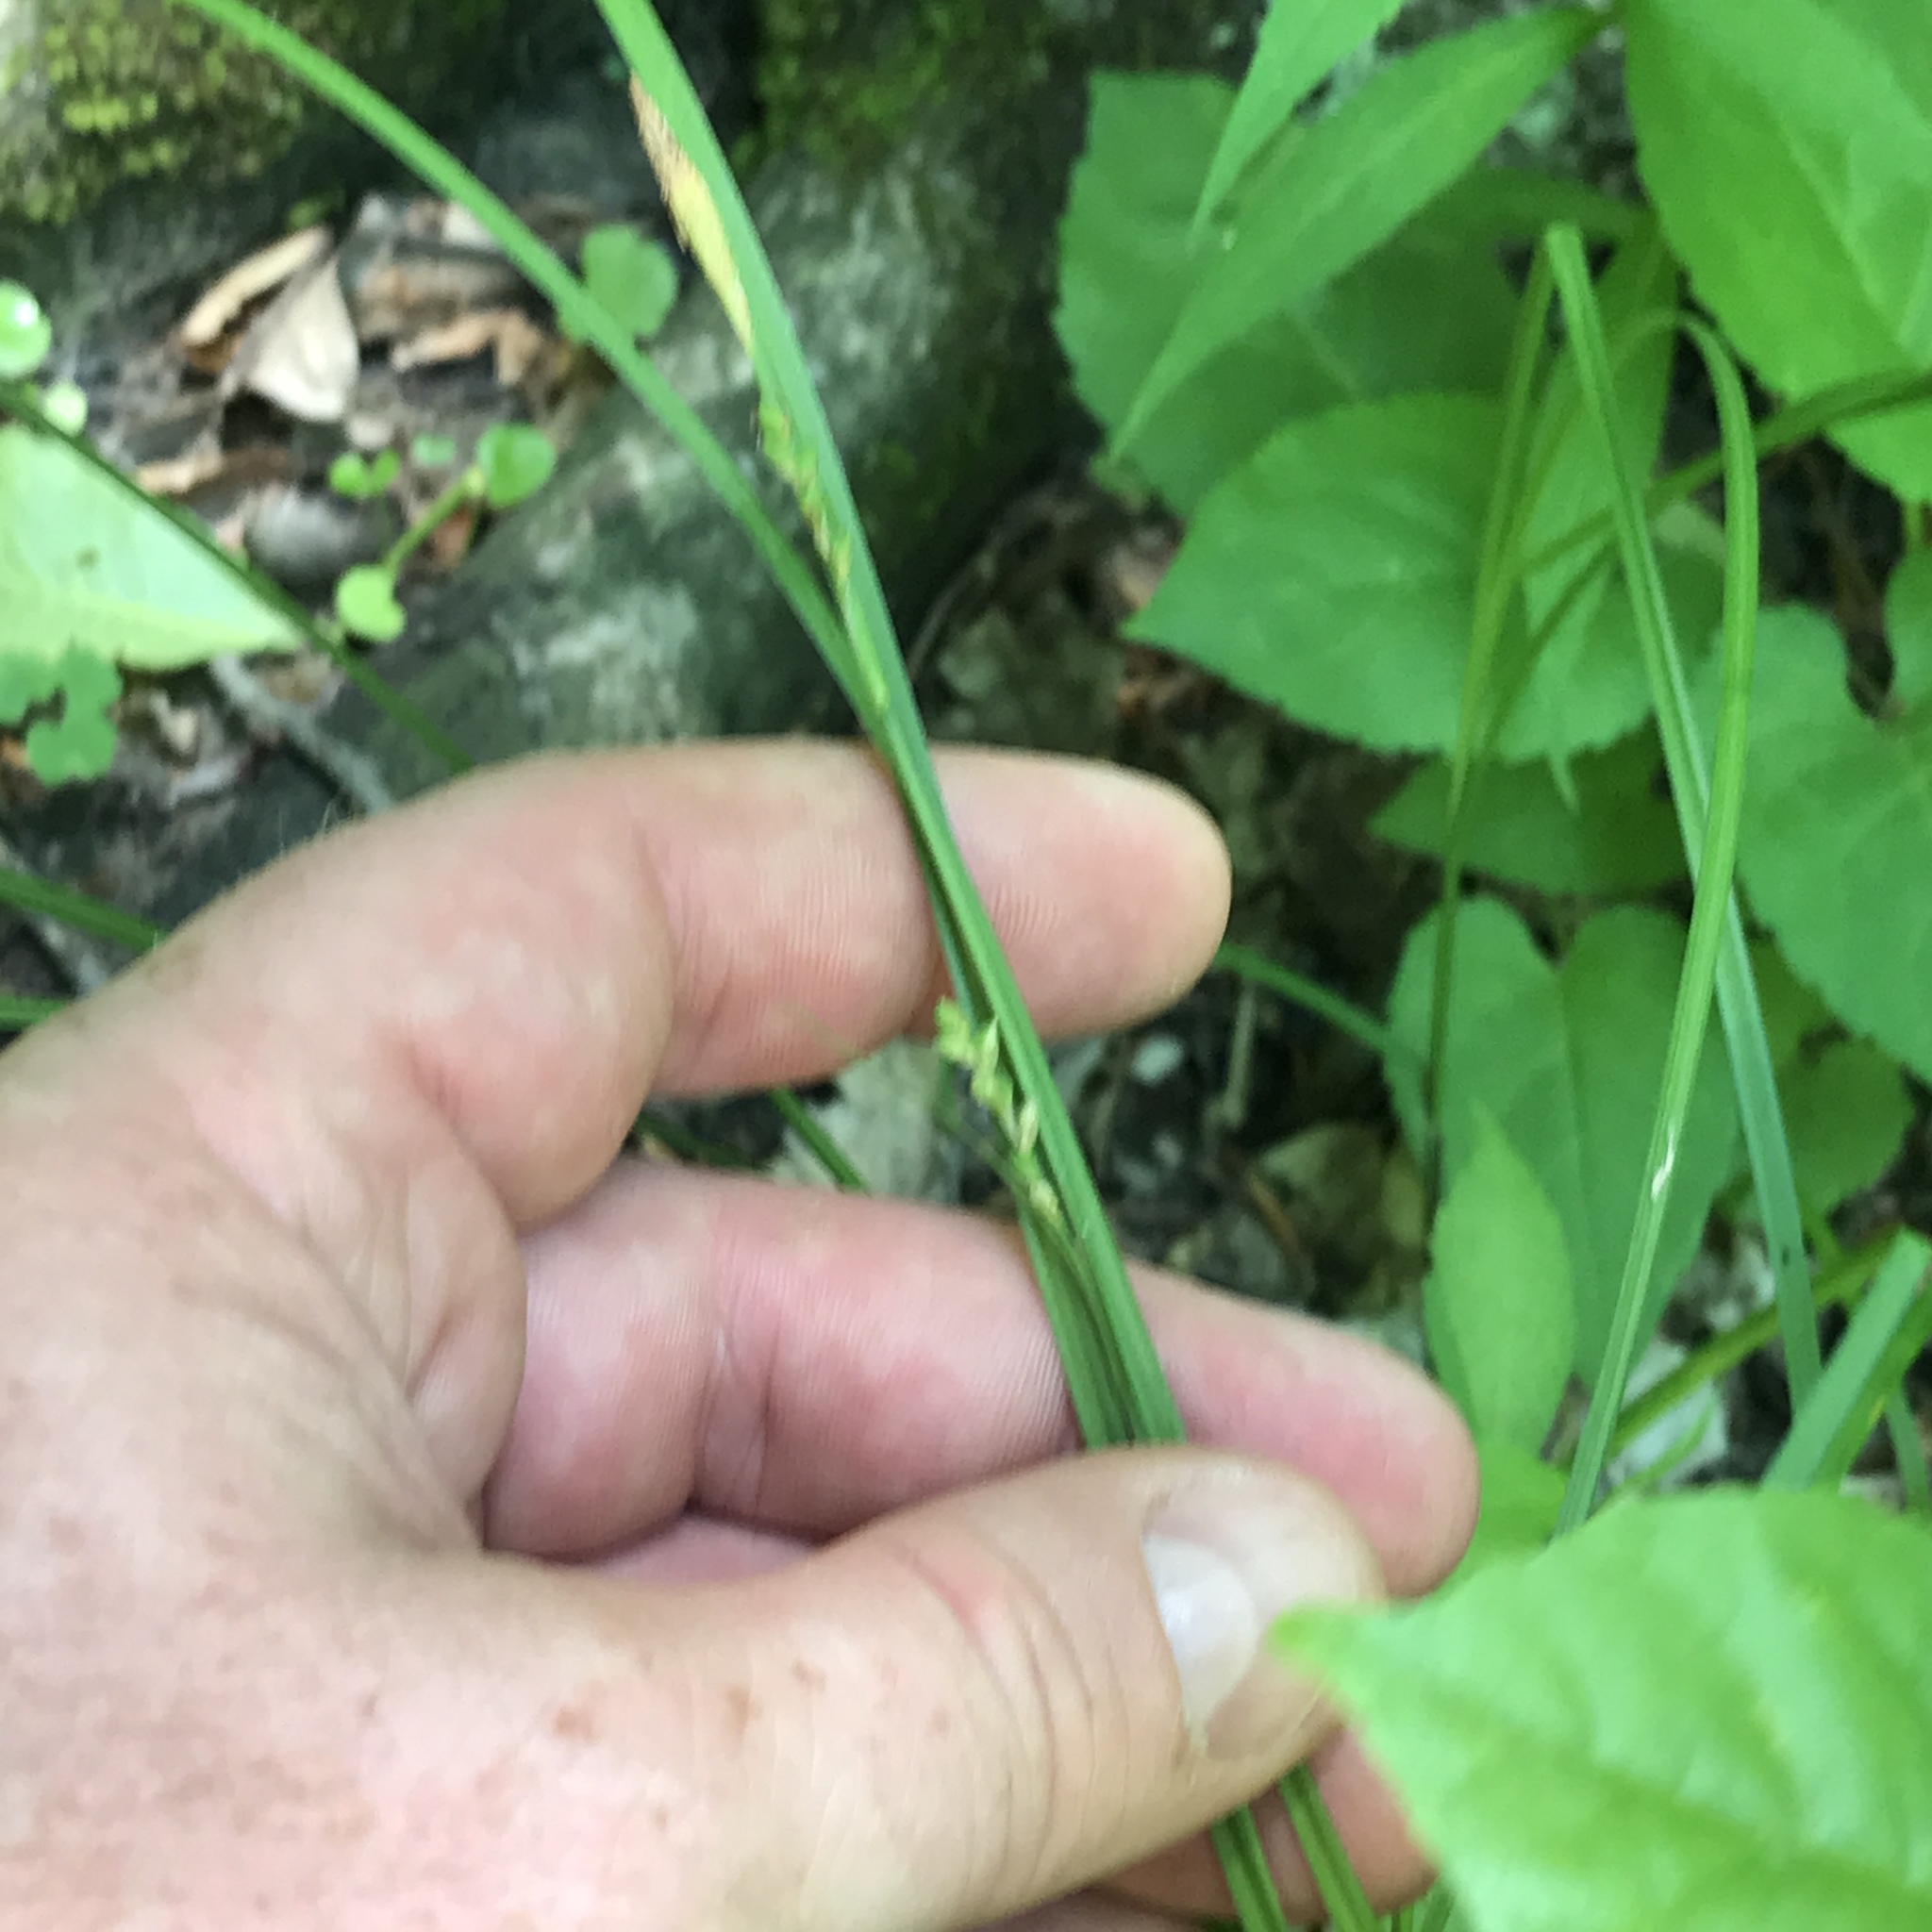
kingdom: Plantae
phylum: Tracheophyta
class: Liliopsida
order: Poales
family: Cyperaceae
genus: Carex
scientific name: Carex woodii
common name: Wood's sedge
